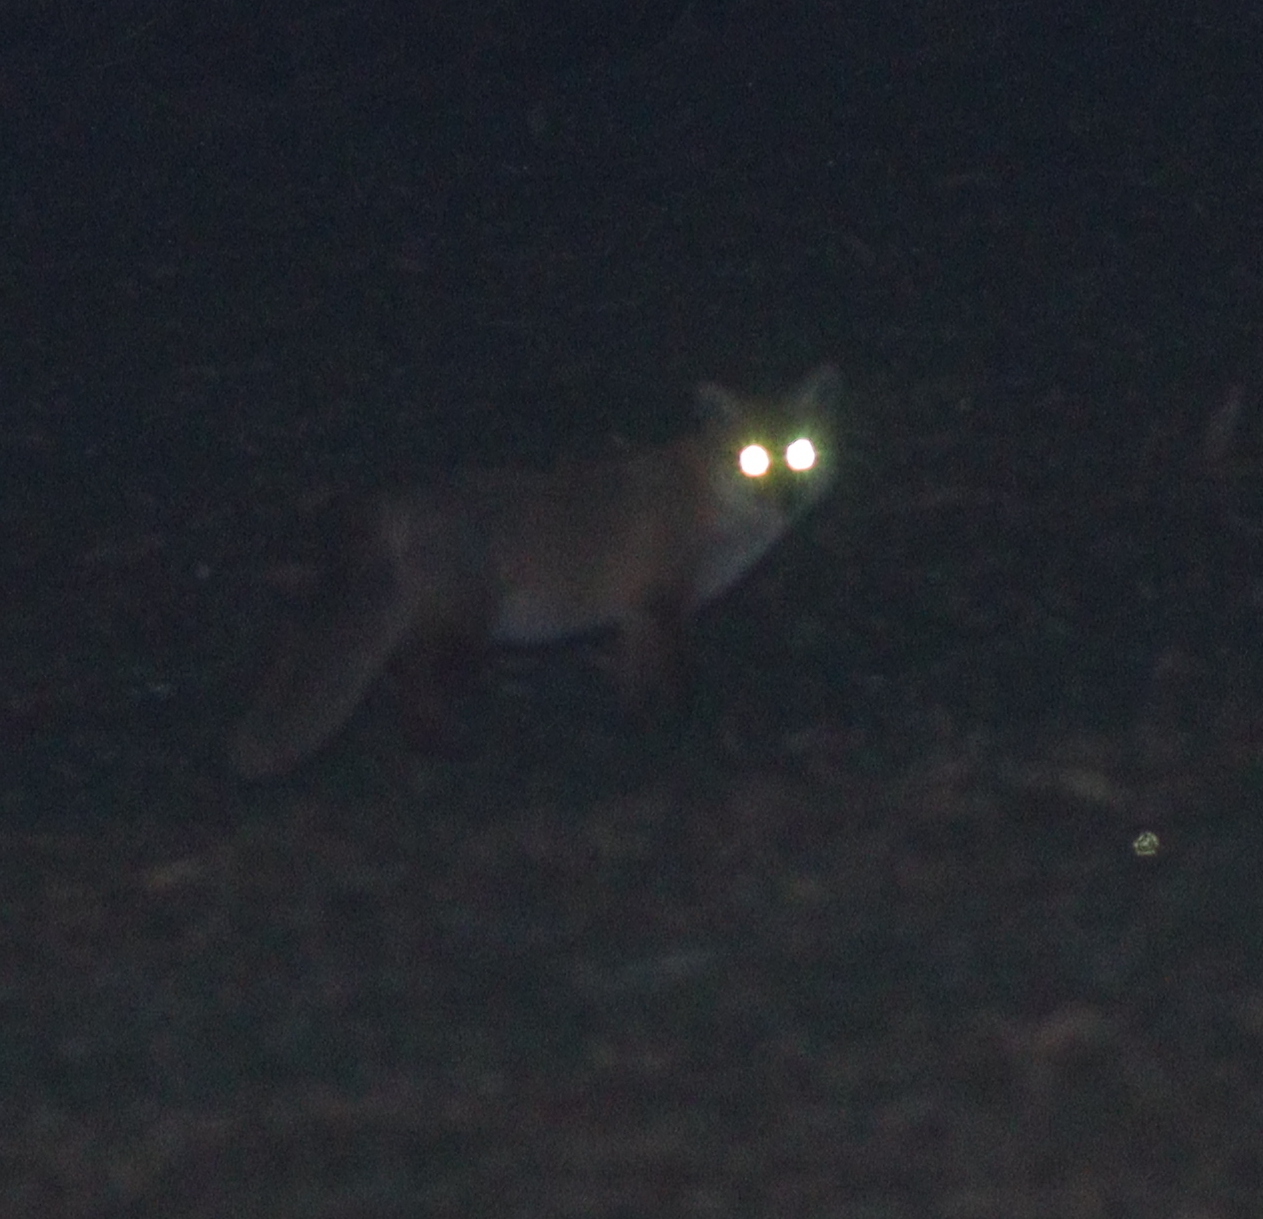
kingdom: Animalia
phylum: Chordata
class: Mammalia
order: Carnivora
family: Canidae
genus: Vulpes
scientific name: Vulpes vulpes
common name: Red fox
